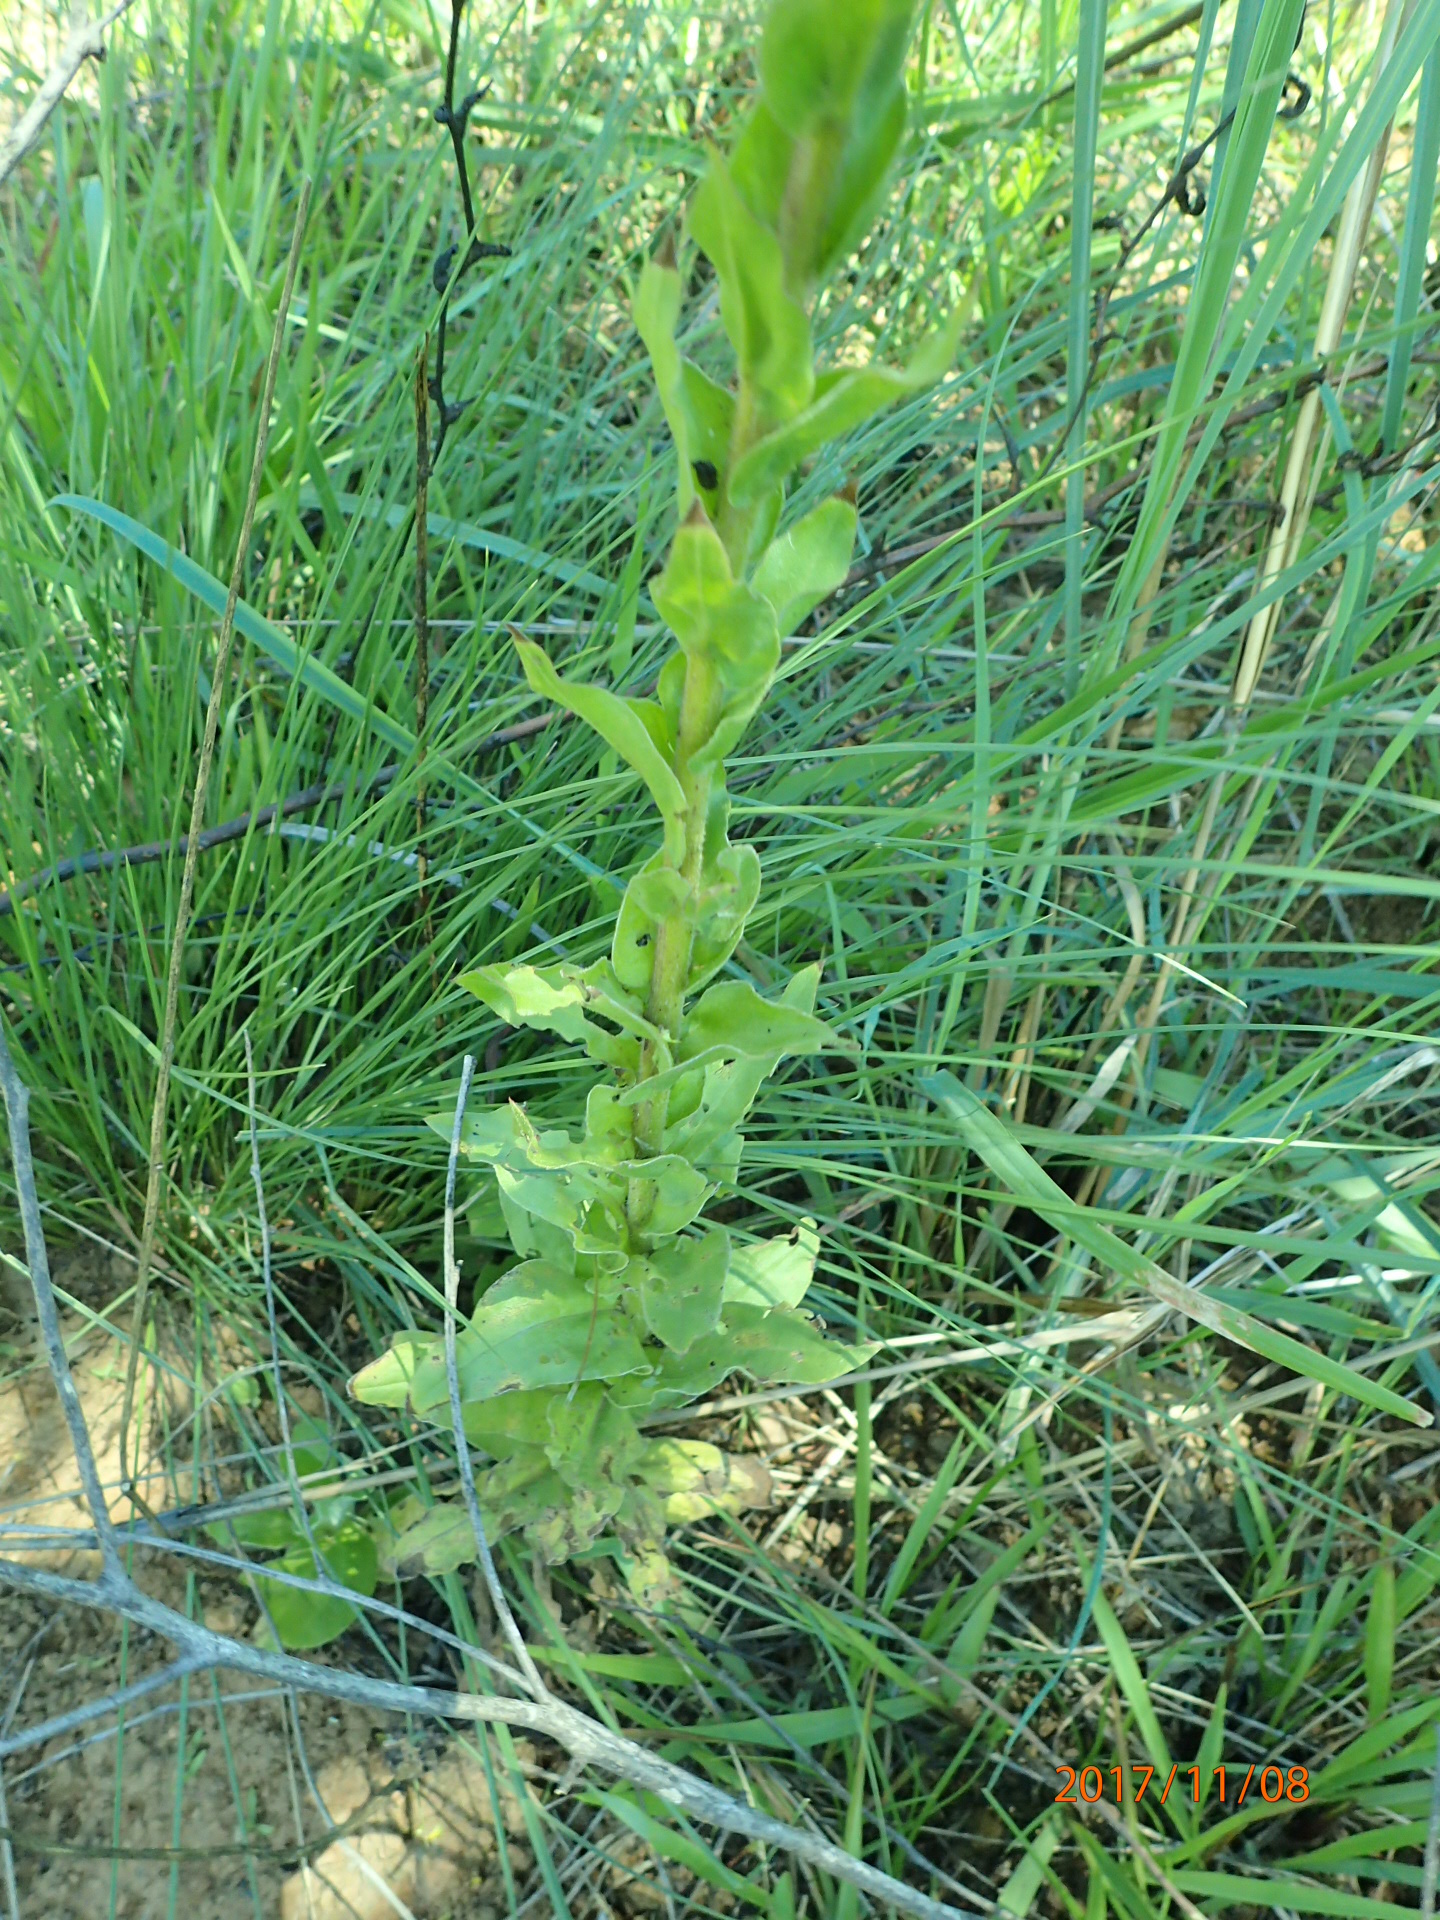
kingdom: Plantae
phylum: Tracheophyta
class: Magnoliopsida
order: Asterales
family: Asteraceae
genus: Helichrysum
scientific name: Helichrysum ruderale
